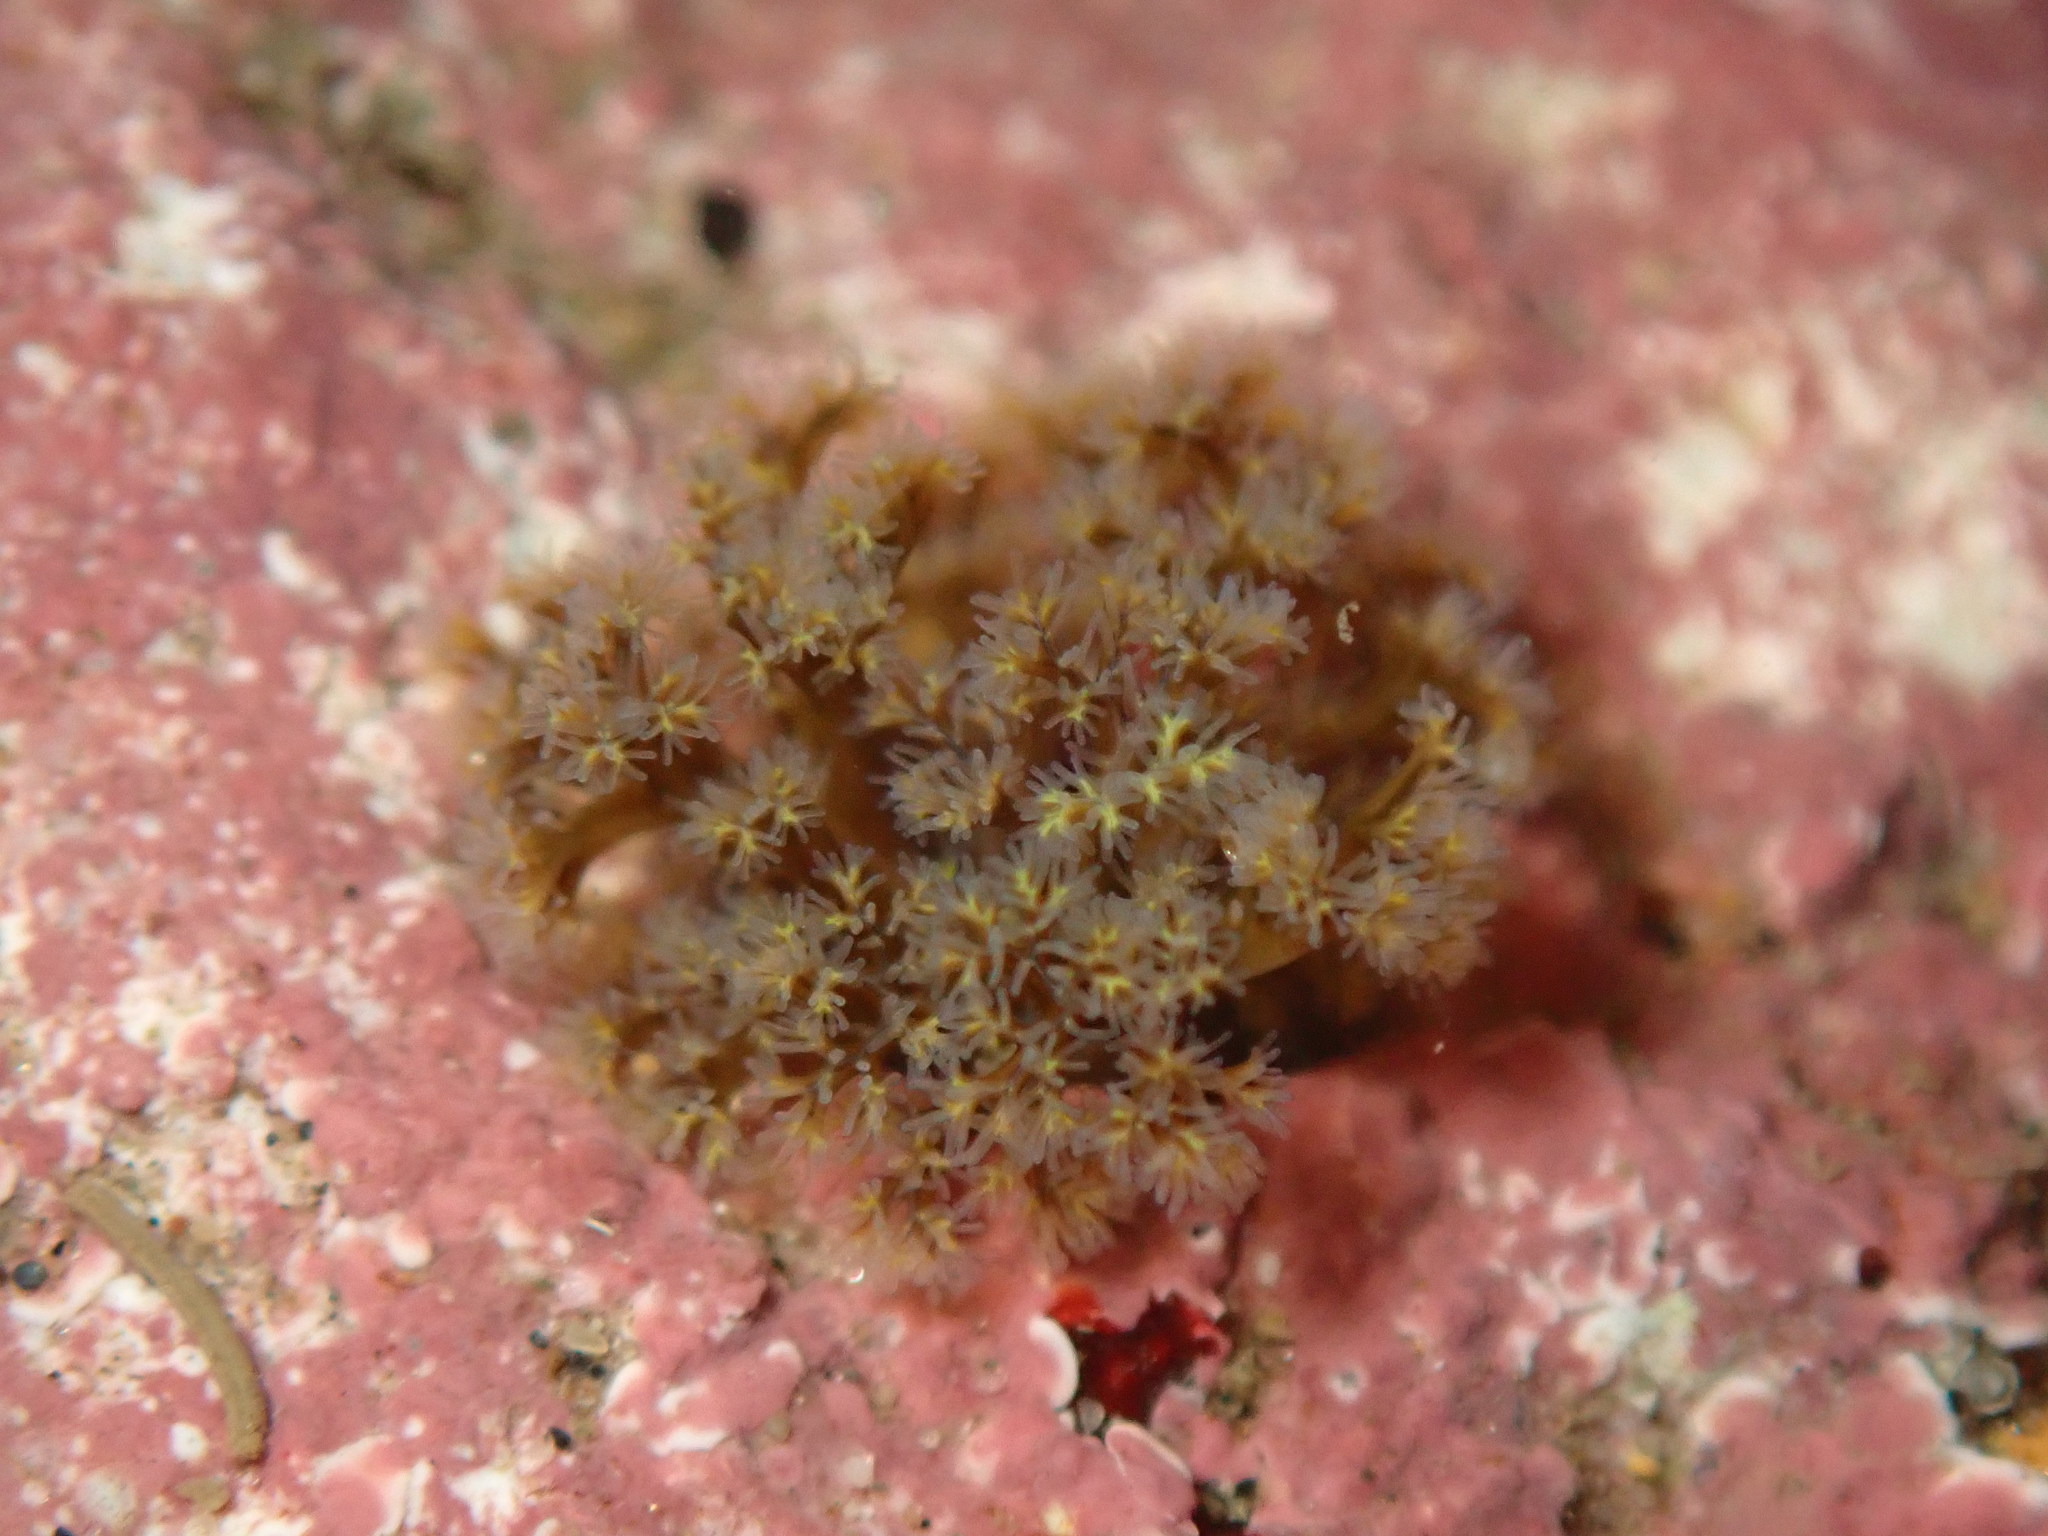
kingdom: Animalia
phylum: Sipuncula
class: Sipunculidea
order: Golfingiiformes
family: Themistidae
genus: Themiste
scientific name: Themiste pyroides
